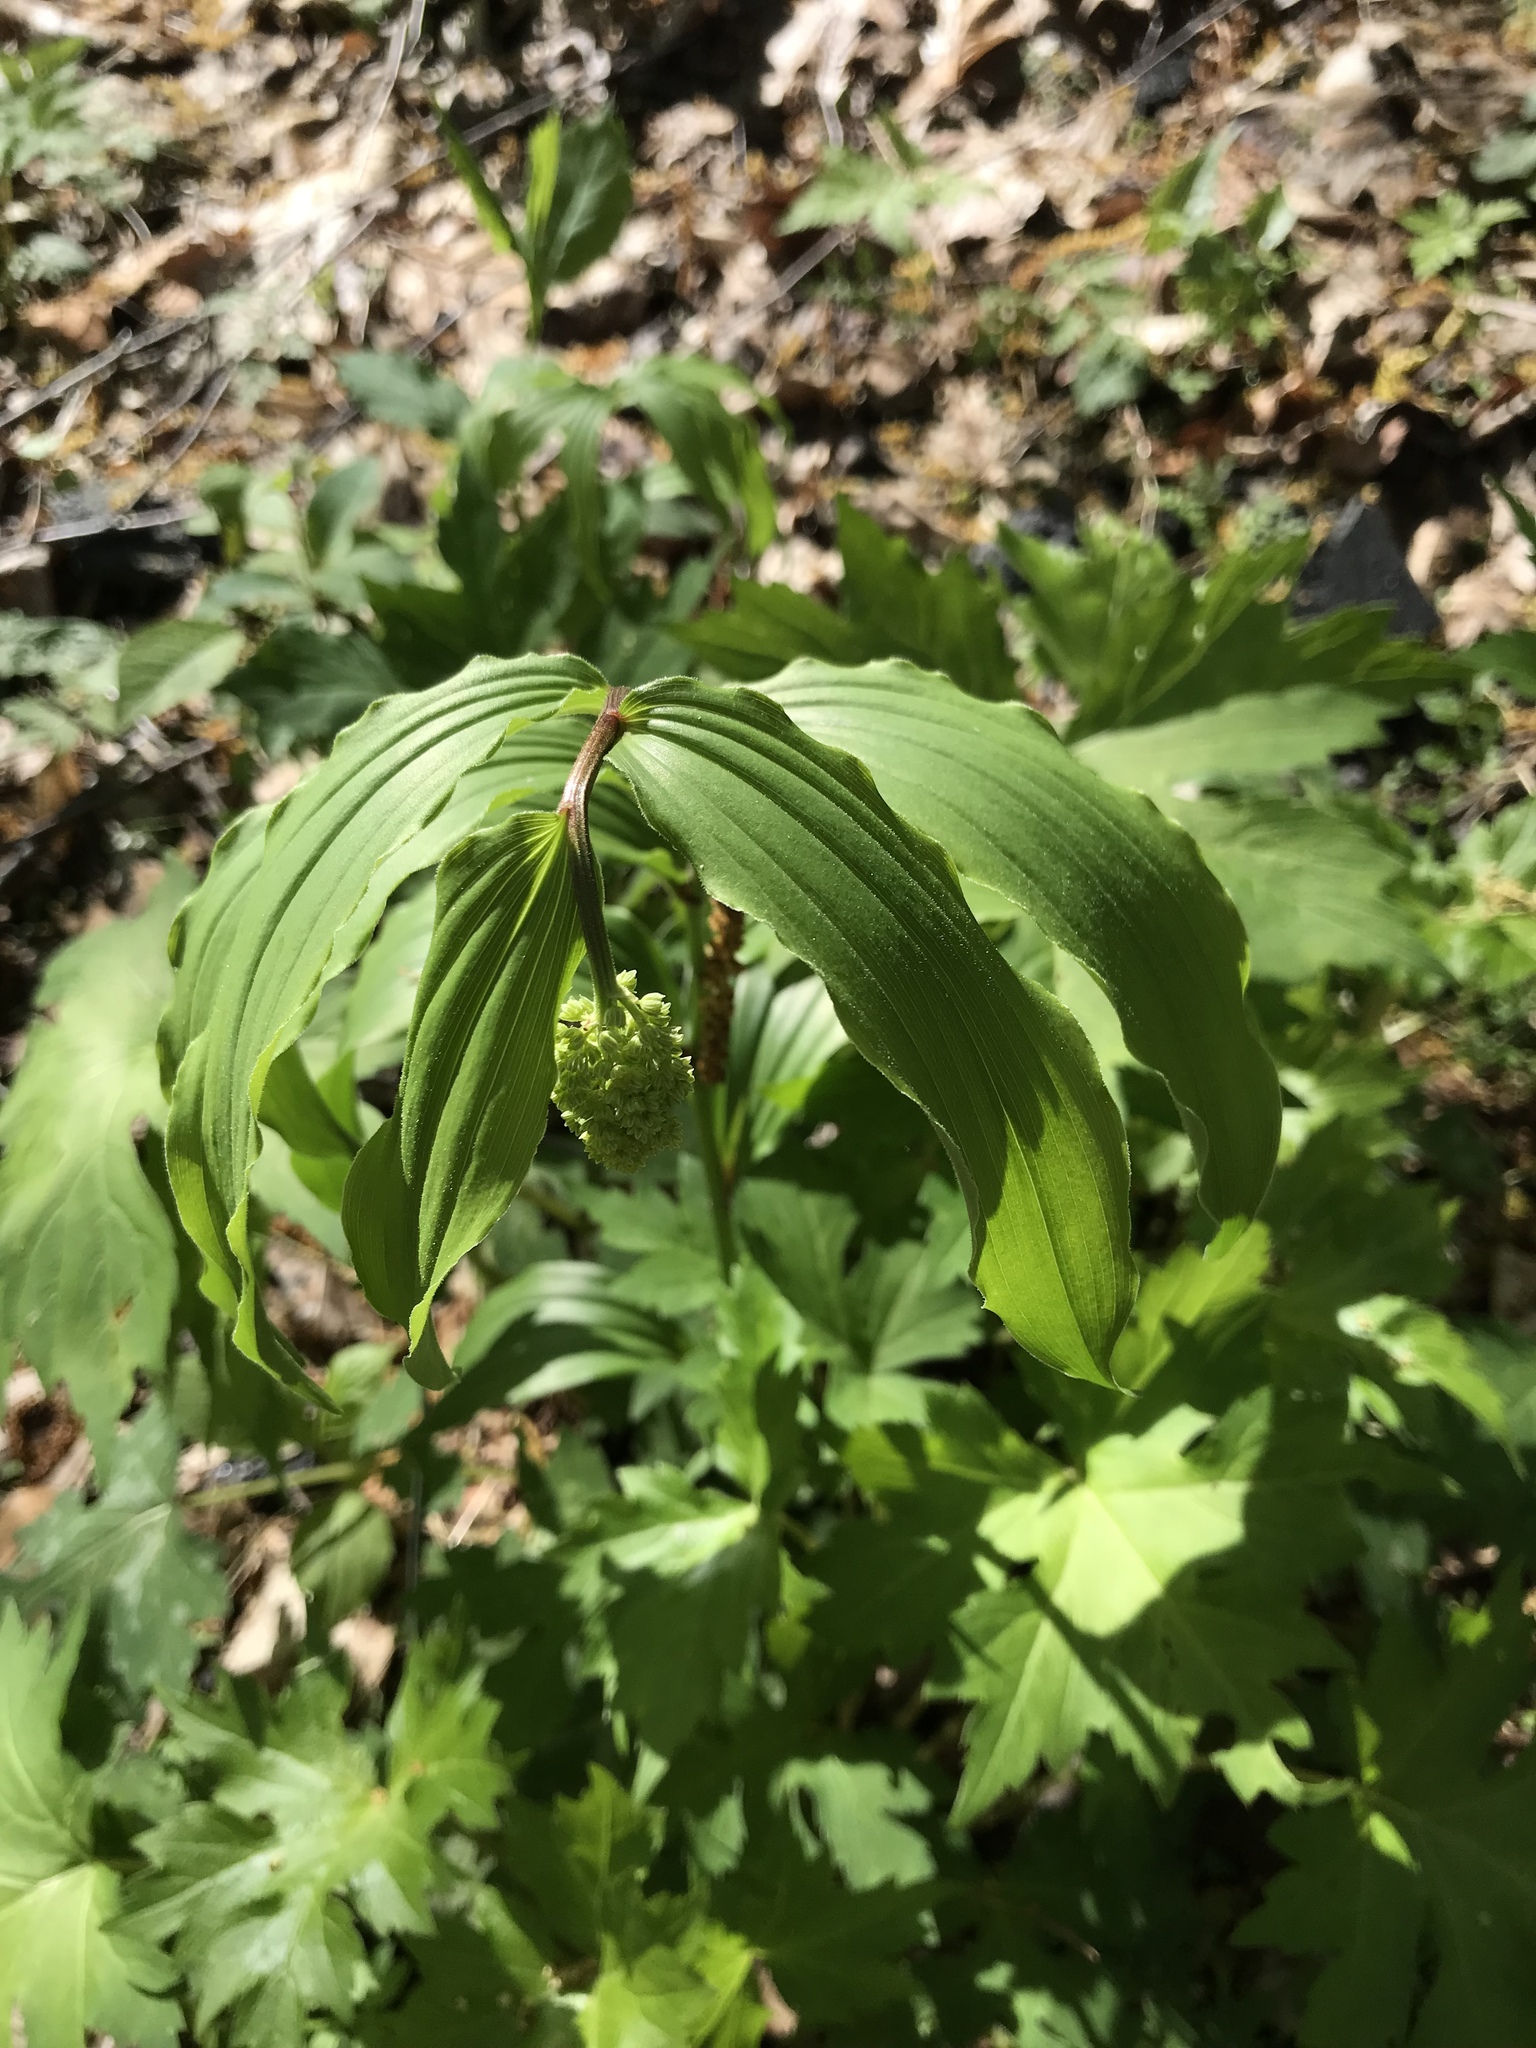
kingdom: Plantae
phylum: Tracheophyta
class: Liliopsida
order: Asparagales
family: Asparagaceae
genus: Maianthemum
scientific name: Maianthemum racemosum
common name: False spikenard
